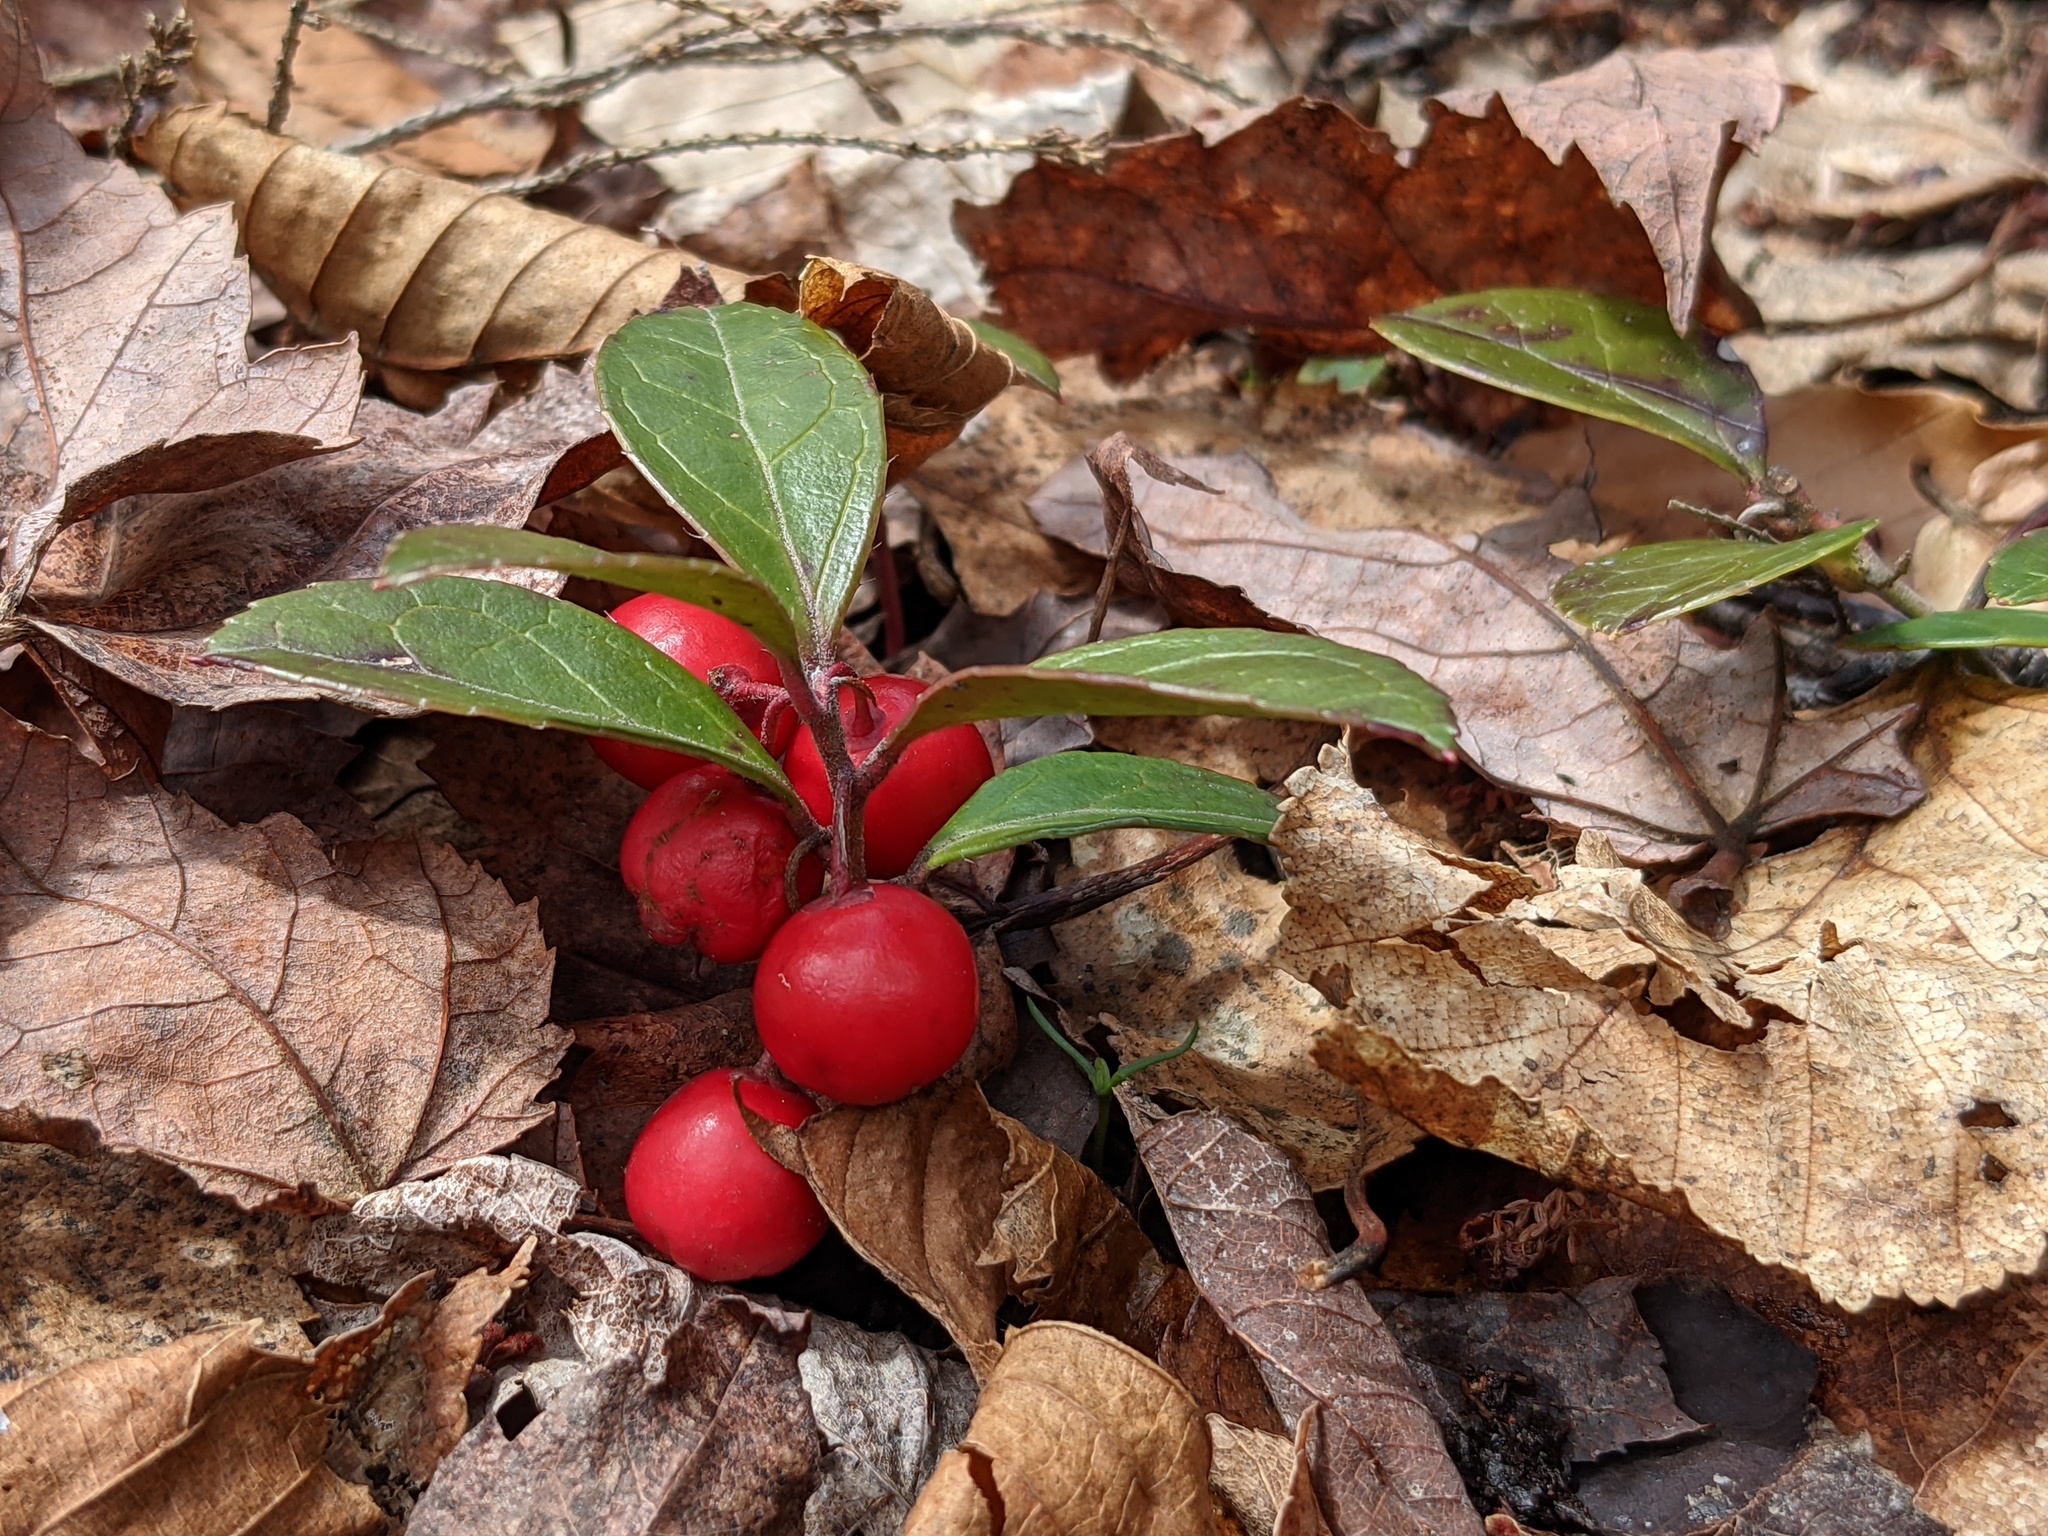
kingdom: Plantae
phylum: Tracheophyta
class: Magnoliopsida
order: Ericales
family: Ericaceae
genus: Gaultheria
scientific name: Gaultheria procumbens
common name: Checkerberry
